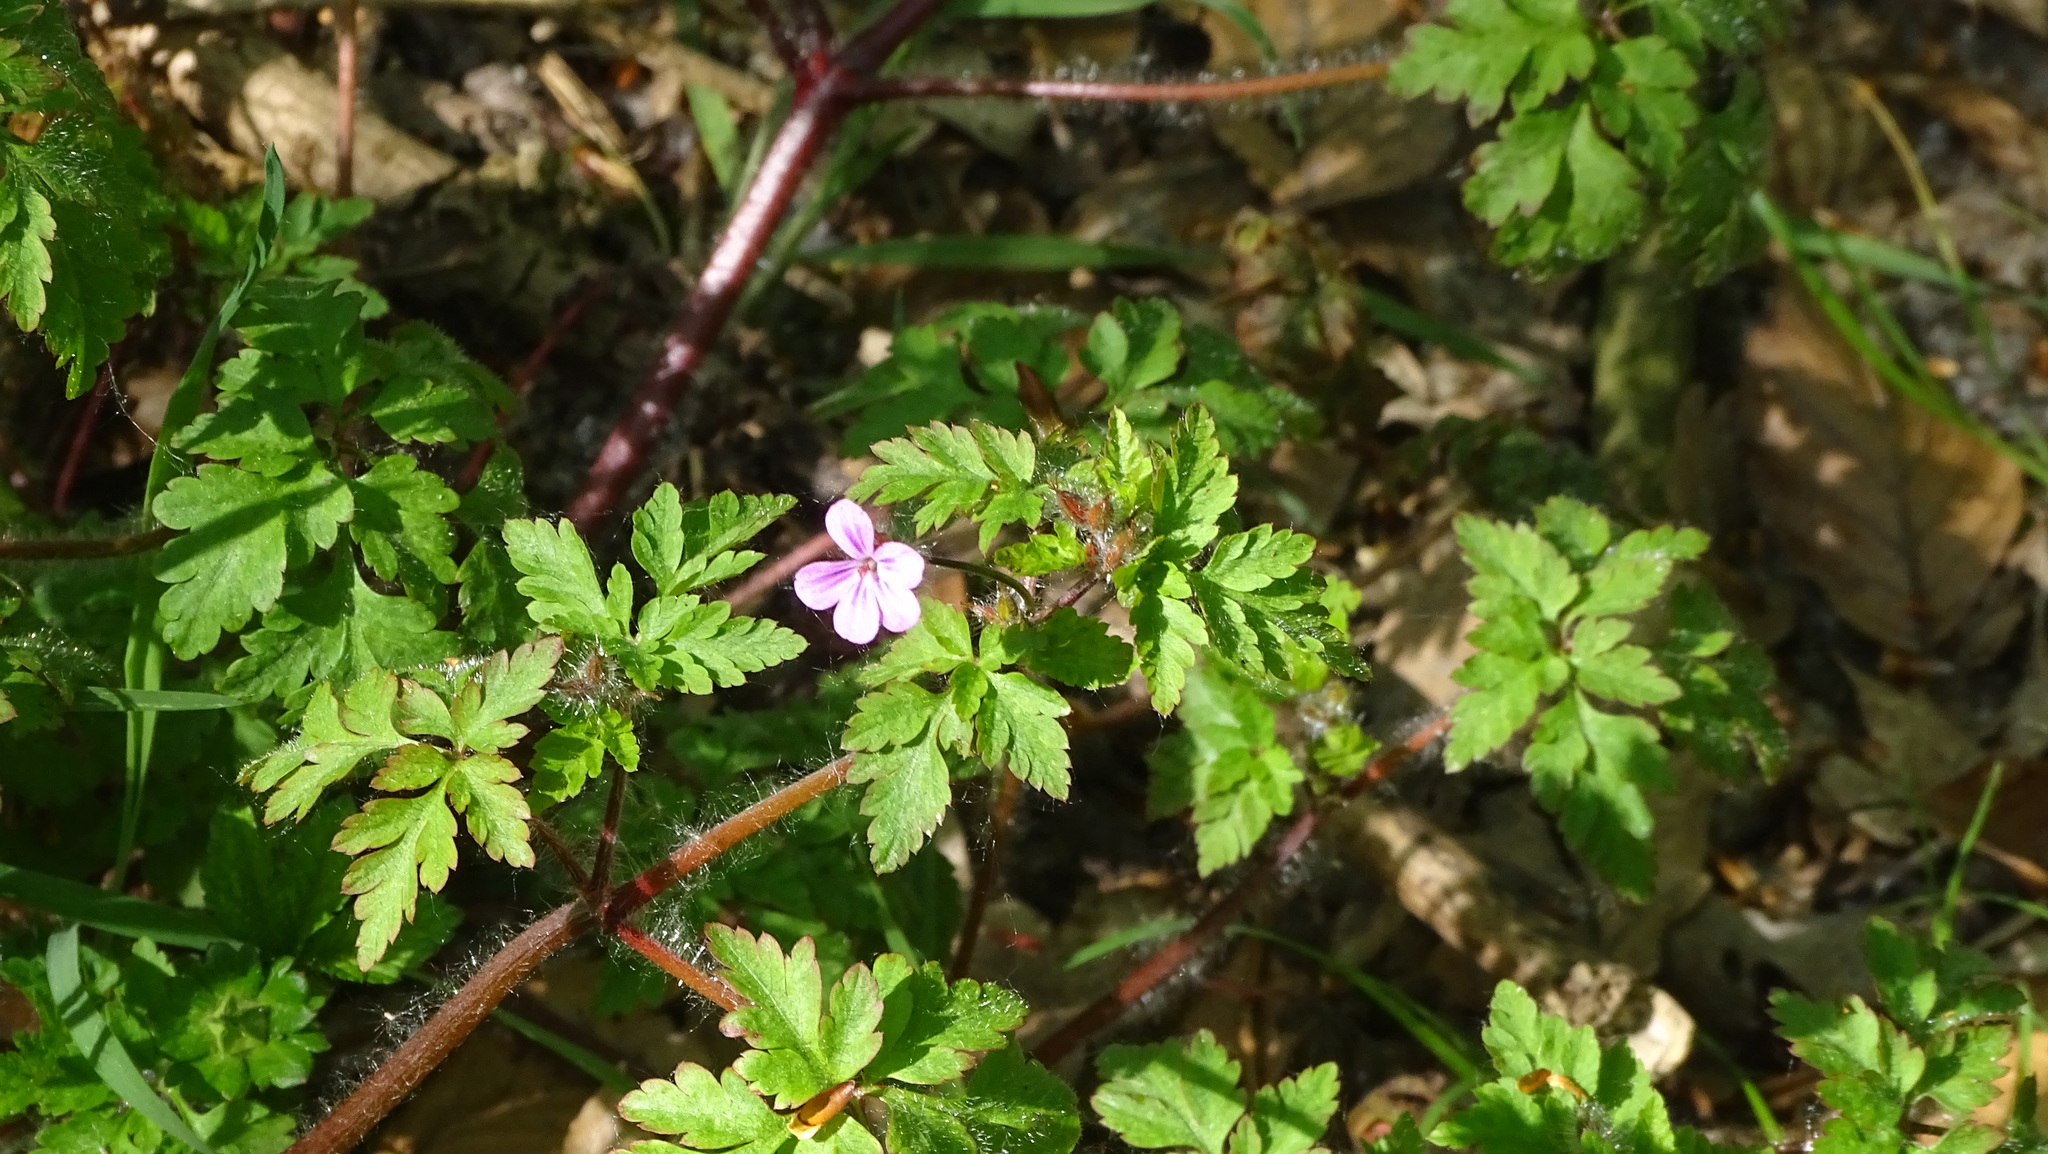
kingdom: Plantae
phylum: Tracheophyta
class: Magnoliopsida
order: Geraniales
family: Geraniaceae
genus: Geranium
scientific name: Geranium robertianum
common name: Herb-robert
